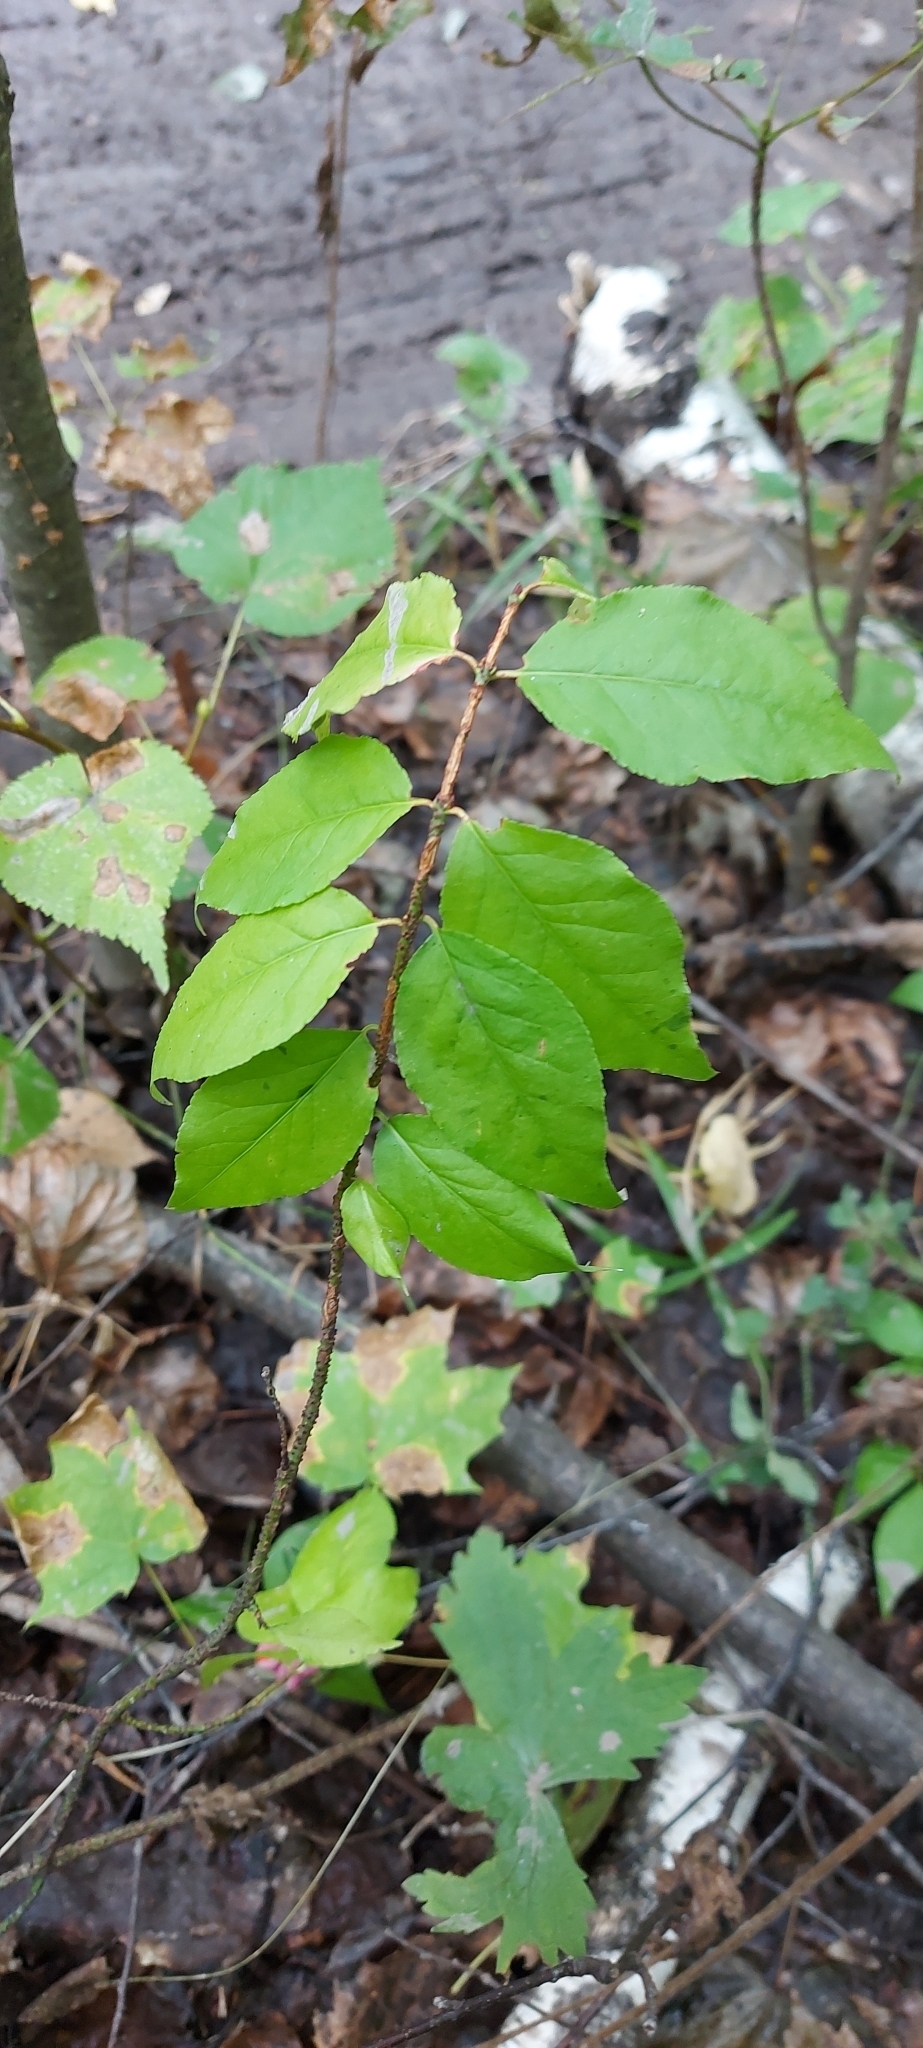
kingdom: Plantae
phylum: Tracheophyta
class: Magnoliopsida
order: Celastrales
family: Celastraceae
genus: Euonymus
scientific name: Euonymus verrucosus
